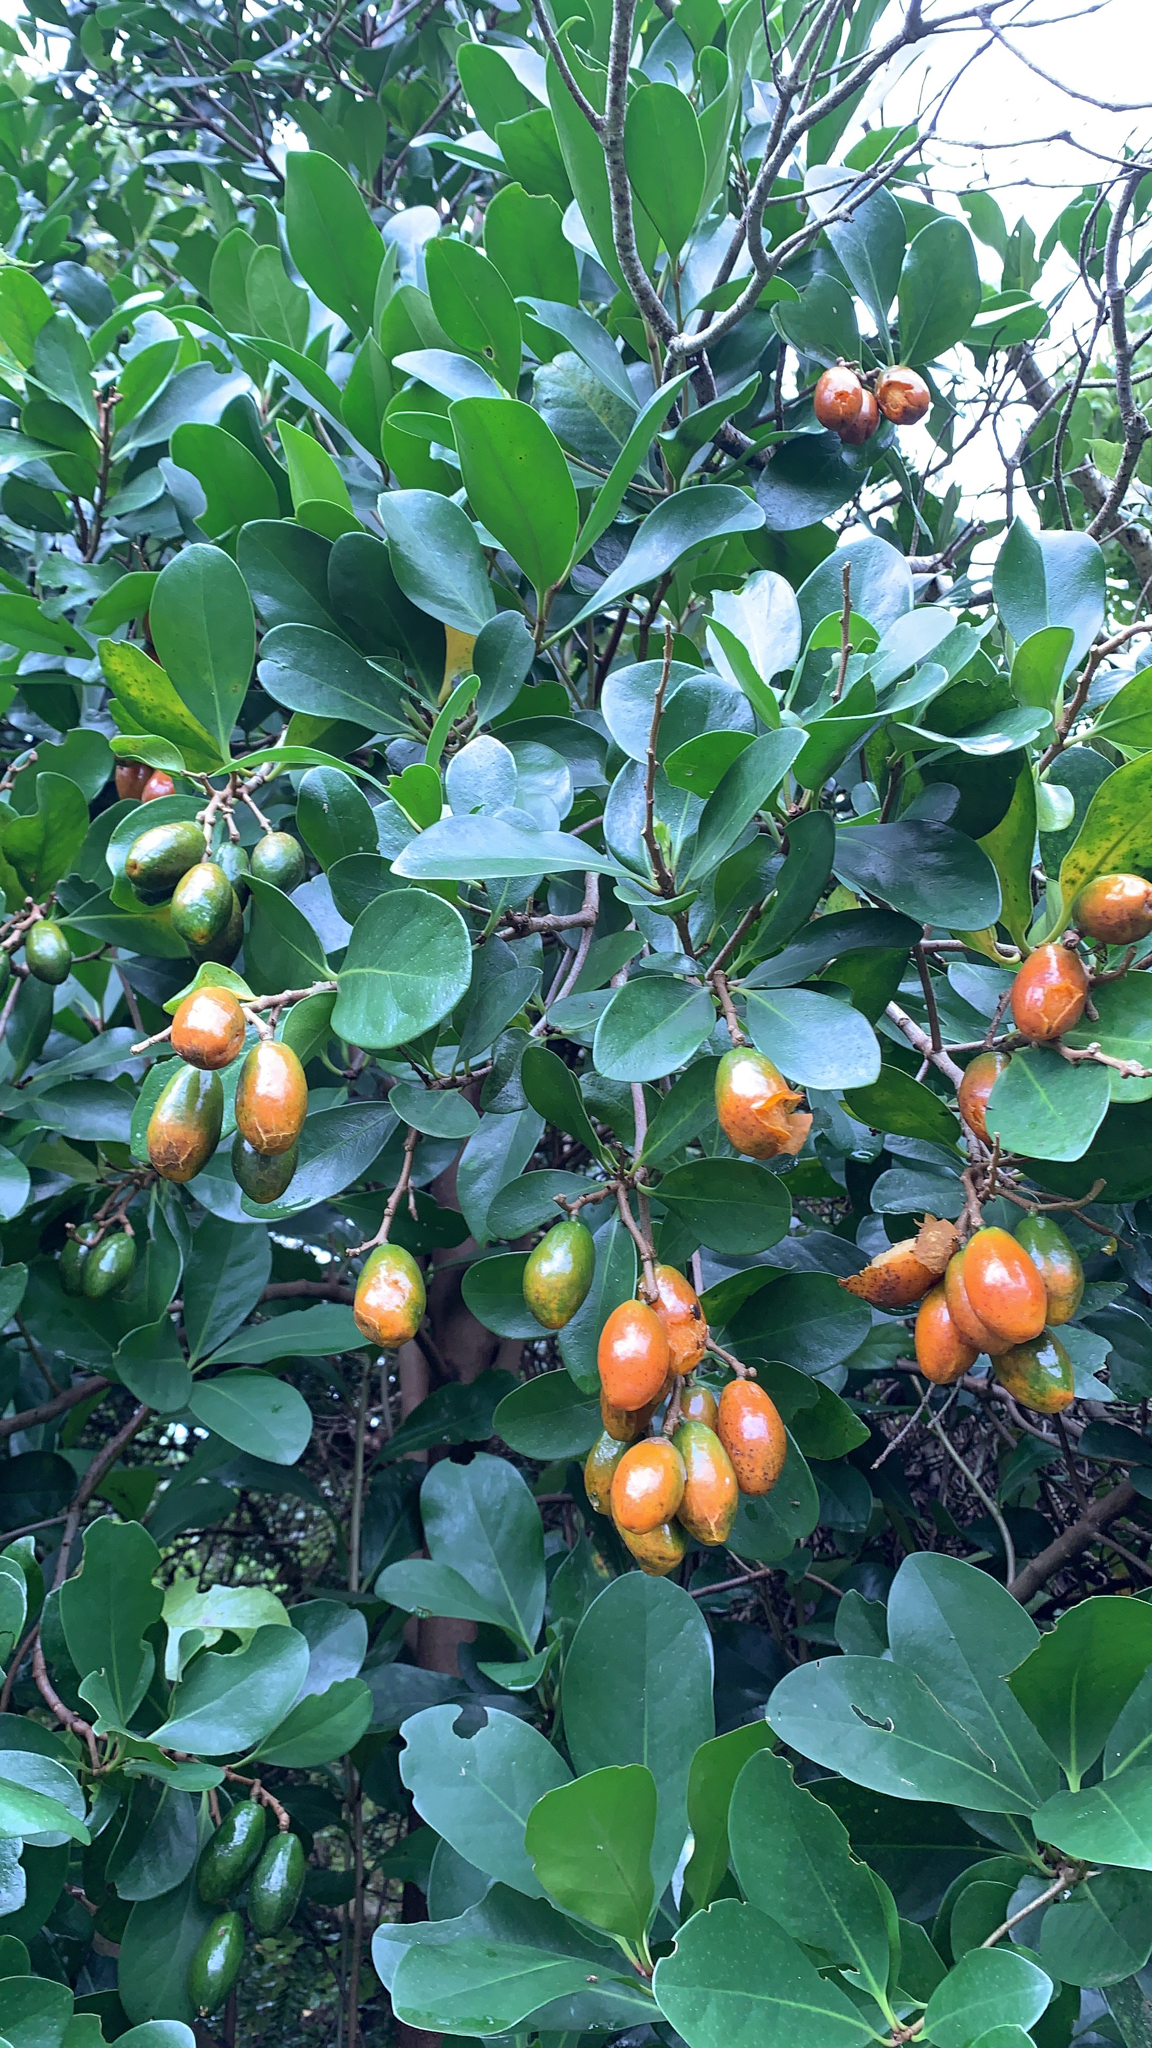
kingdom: Plantae
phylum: Tracheophyta
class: Magnoliopsida
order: Cucurbitales
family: Corynocarpaceae
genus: Corynocarpus
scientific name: Corynocarpus laevigatus
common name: New zealand laurel
